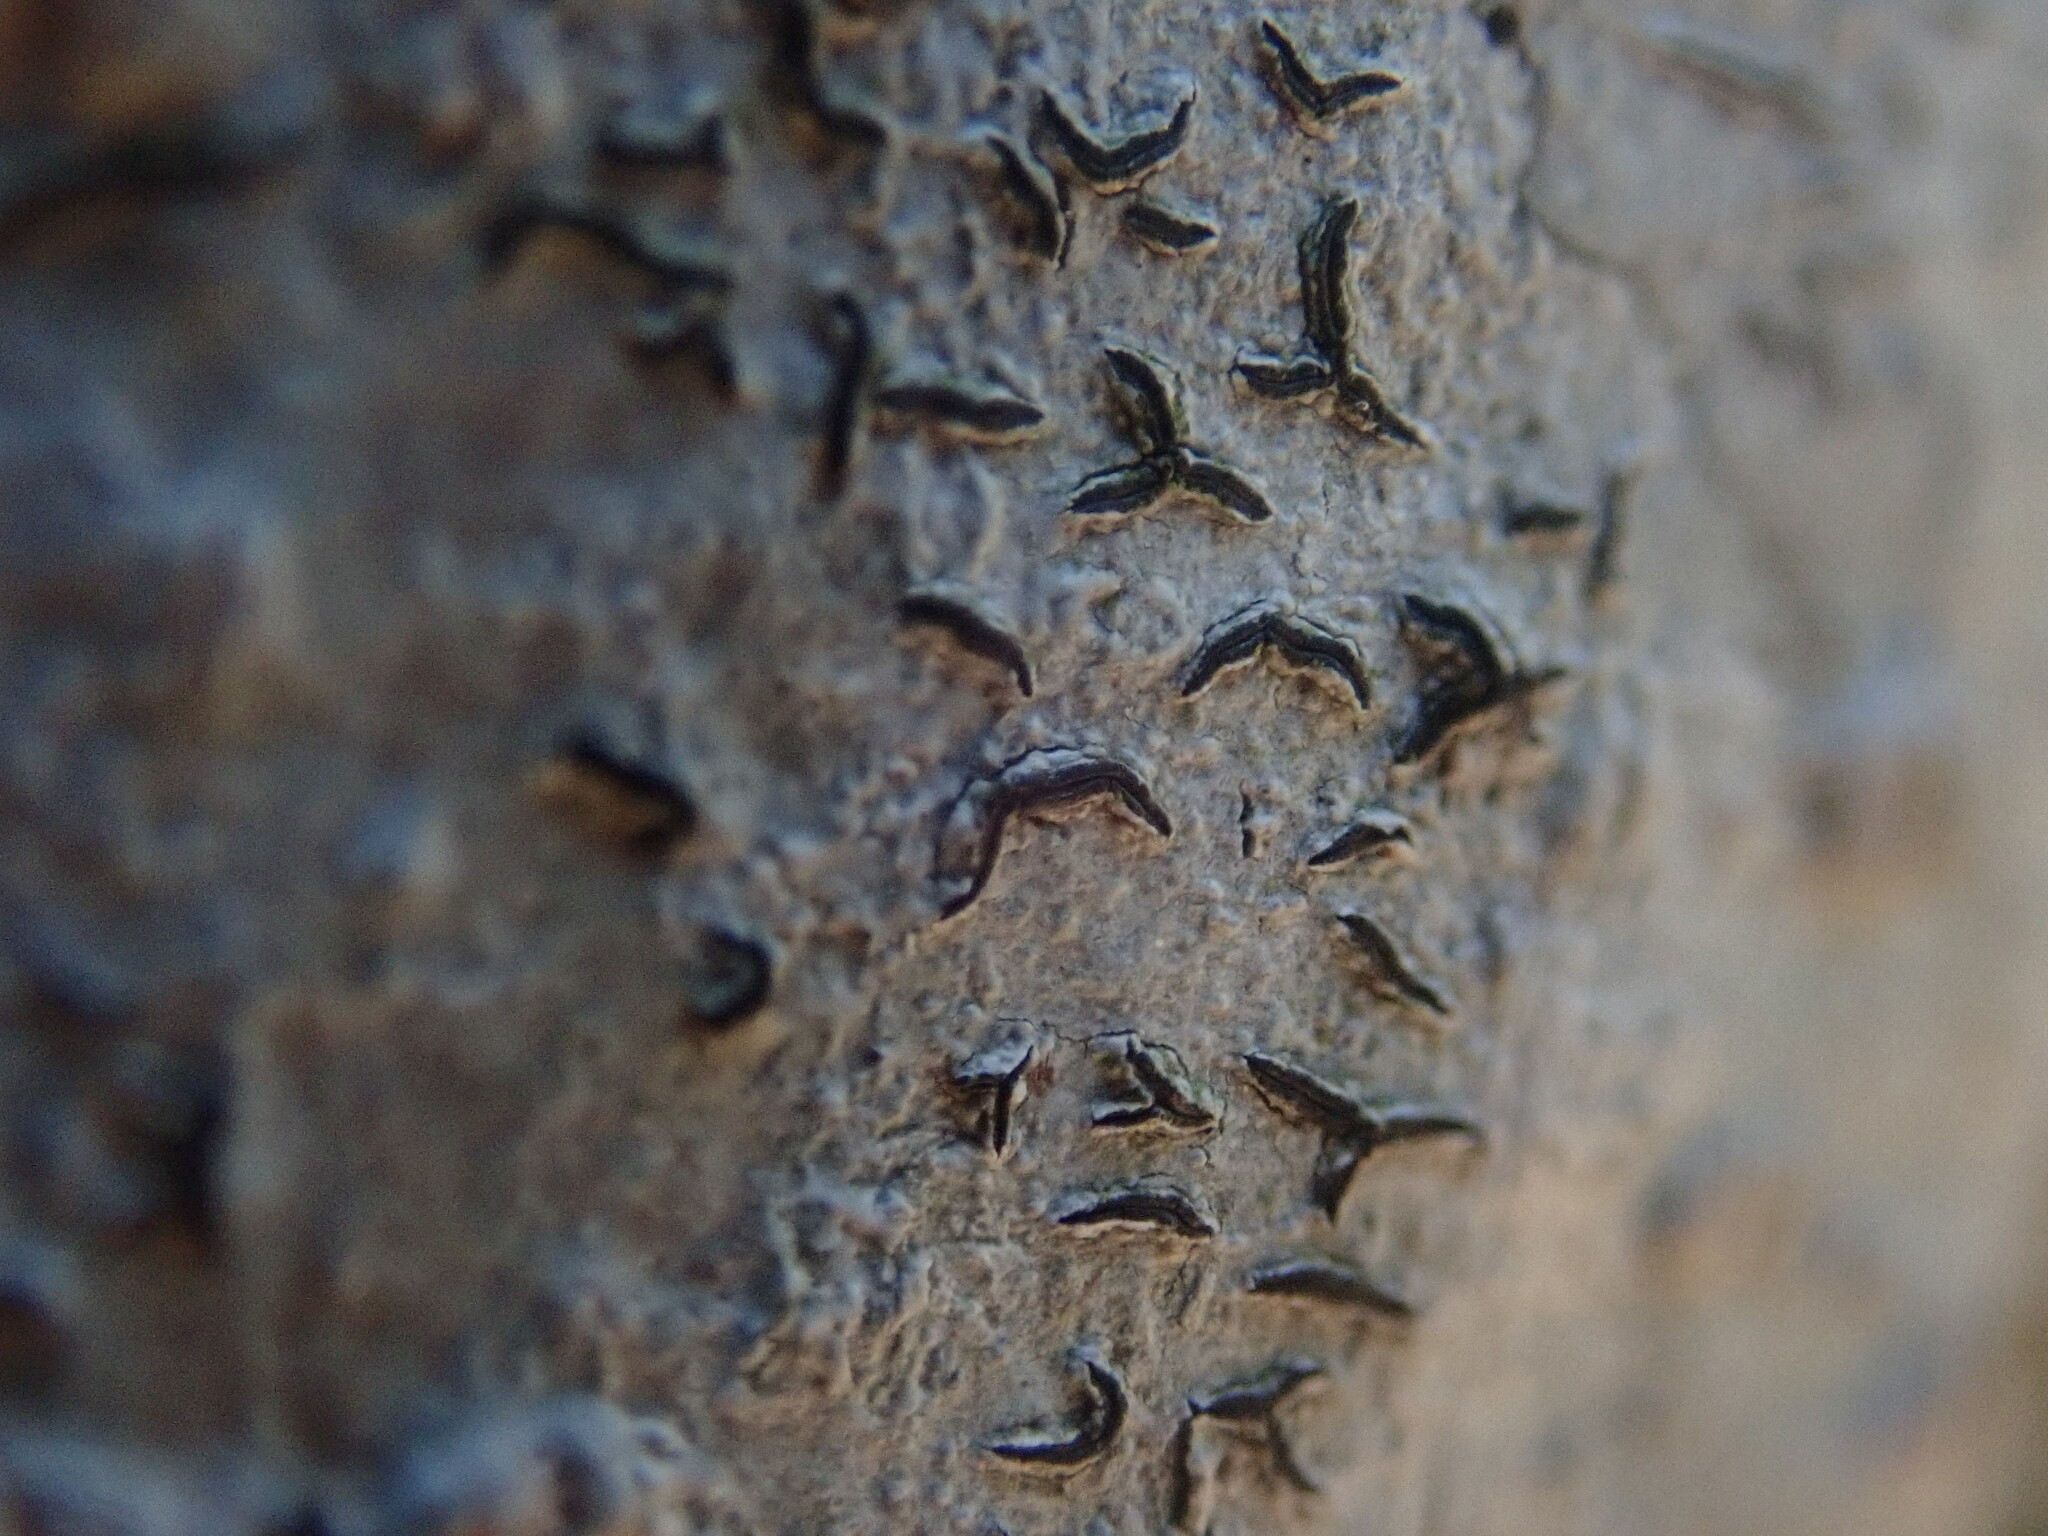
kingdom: Fungi
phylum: Ascomycota
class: Lecanoromycetes
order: Ostropales
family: Graphidaceae
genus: Graphis
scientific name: Graphis scripta
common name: Script lichen
